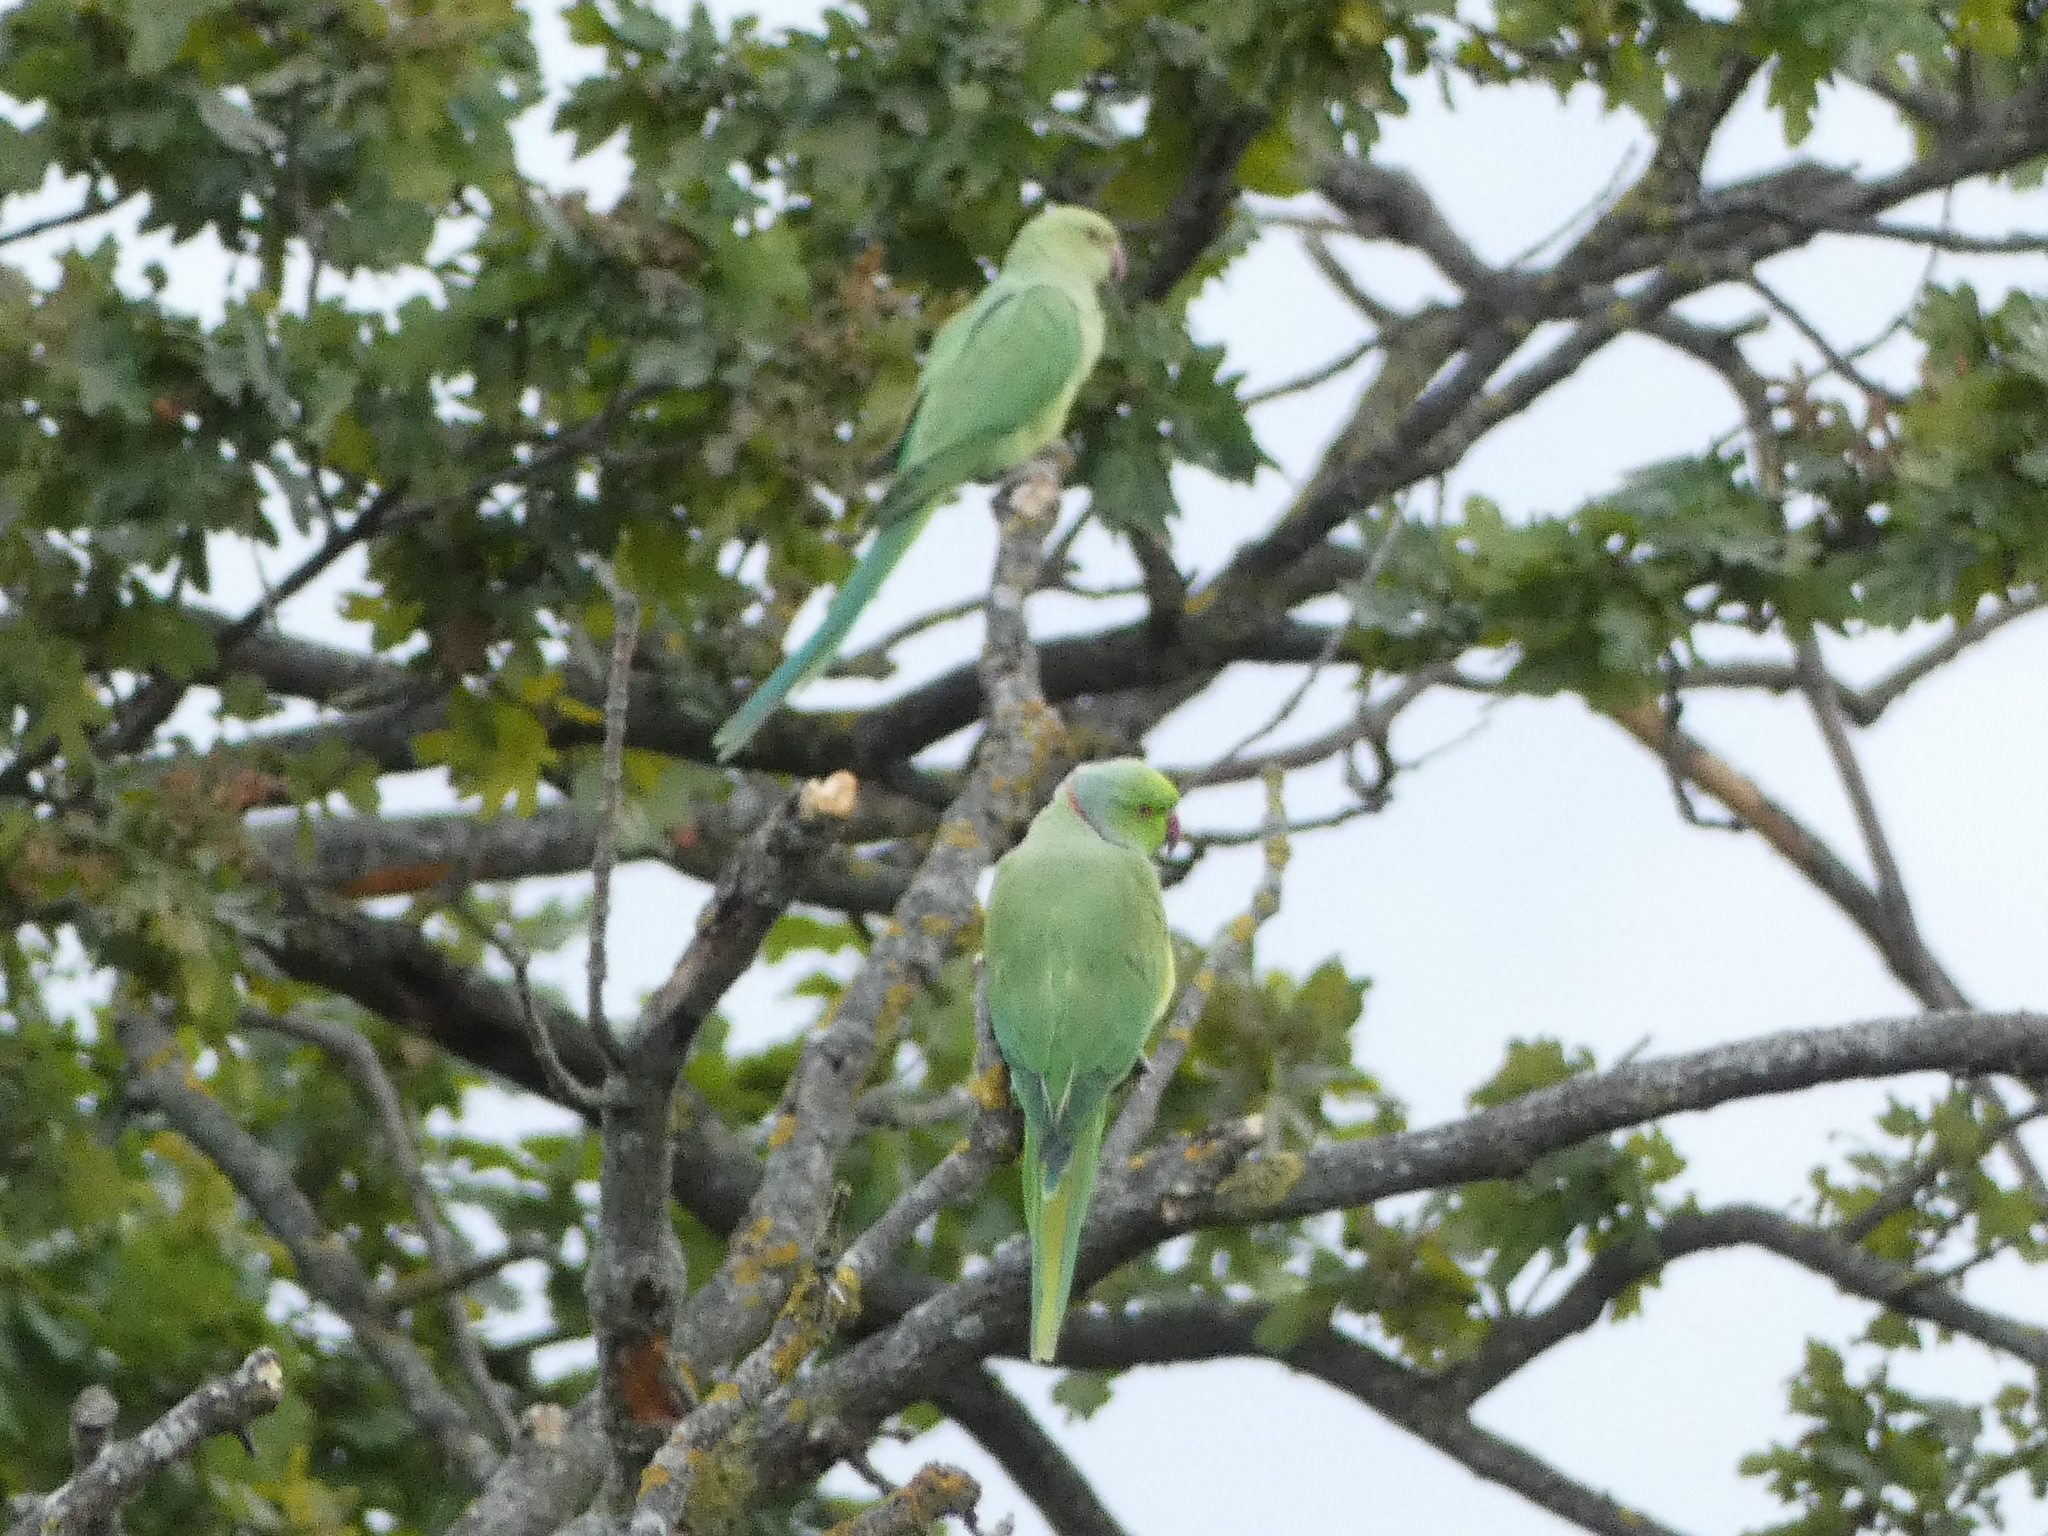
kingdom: Animalia
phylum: Chordata
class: Aves
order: Psittaciformes
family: Psittacidae
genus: Psittacula
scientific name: Psittacula krameri
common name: Rose-ringed parakeet
